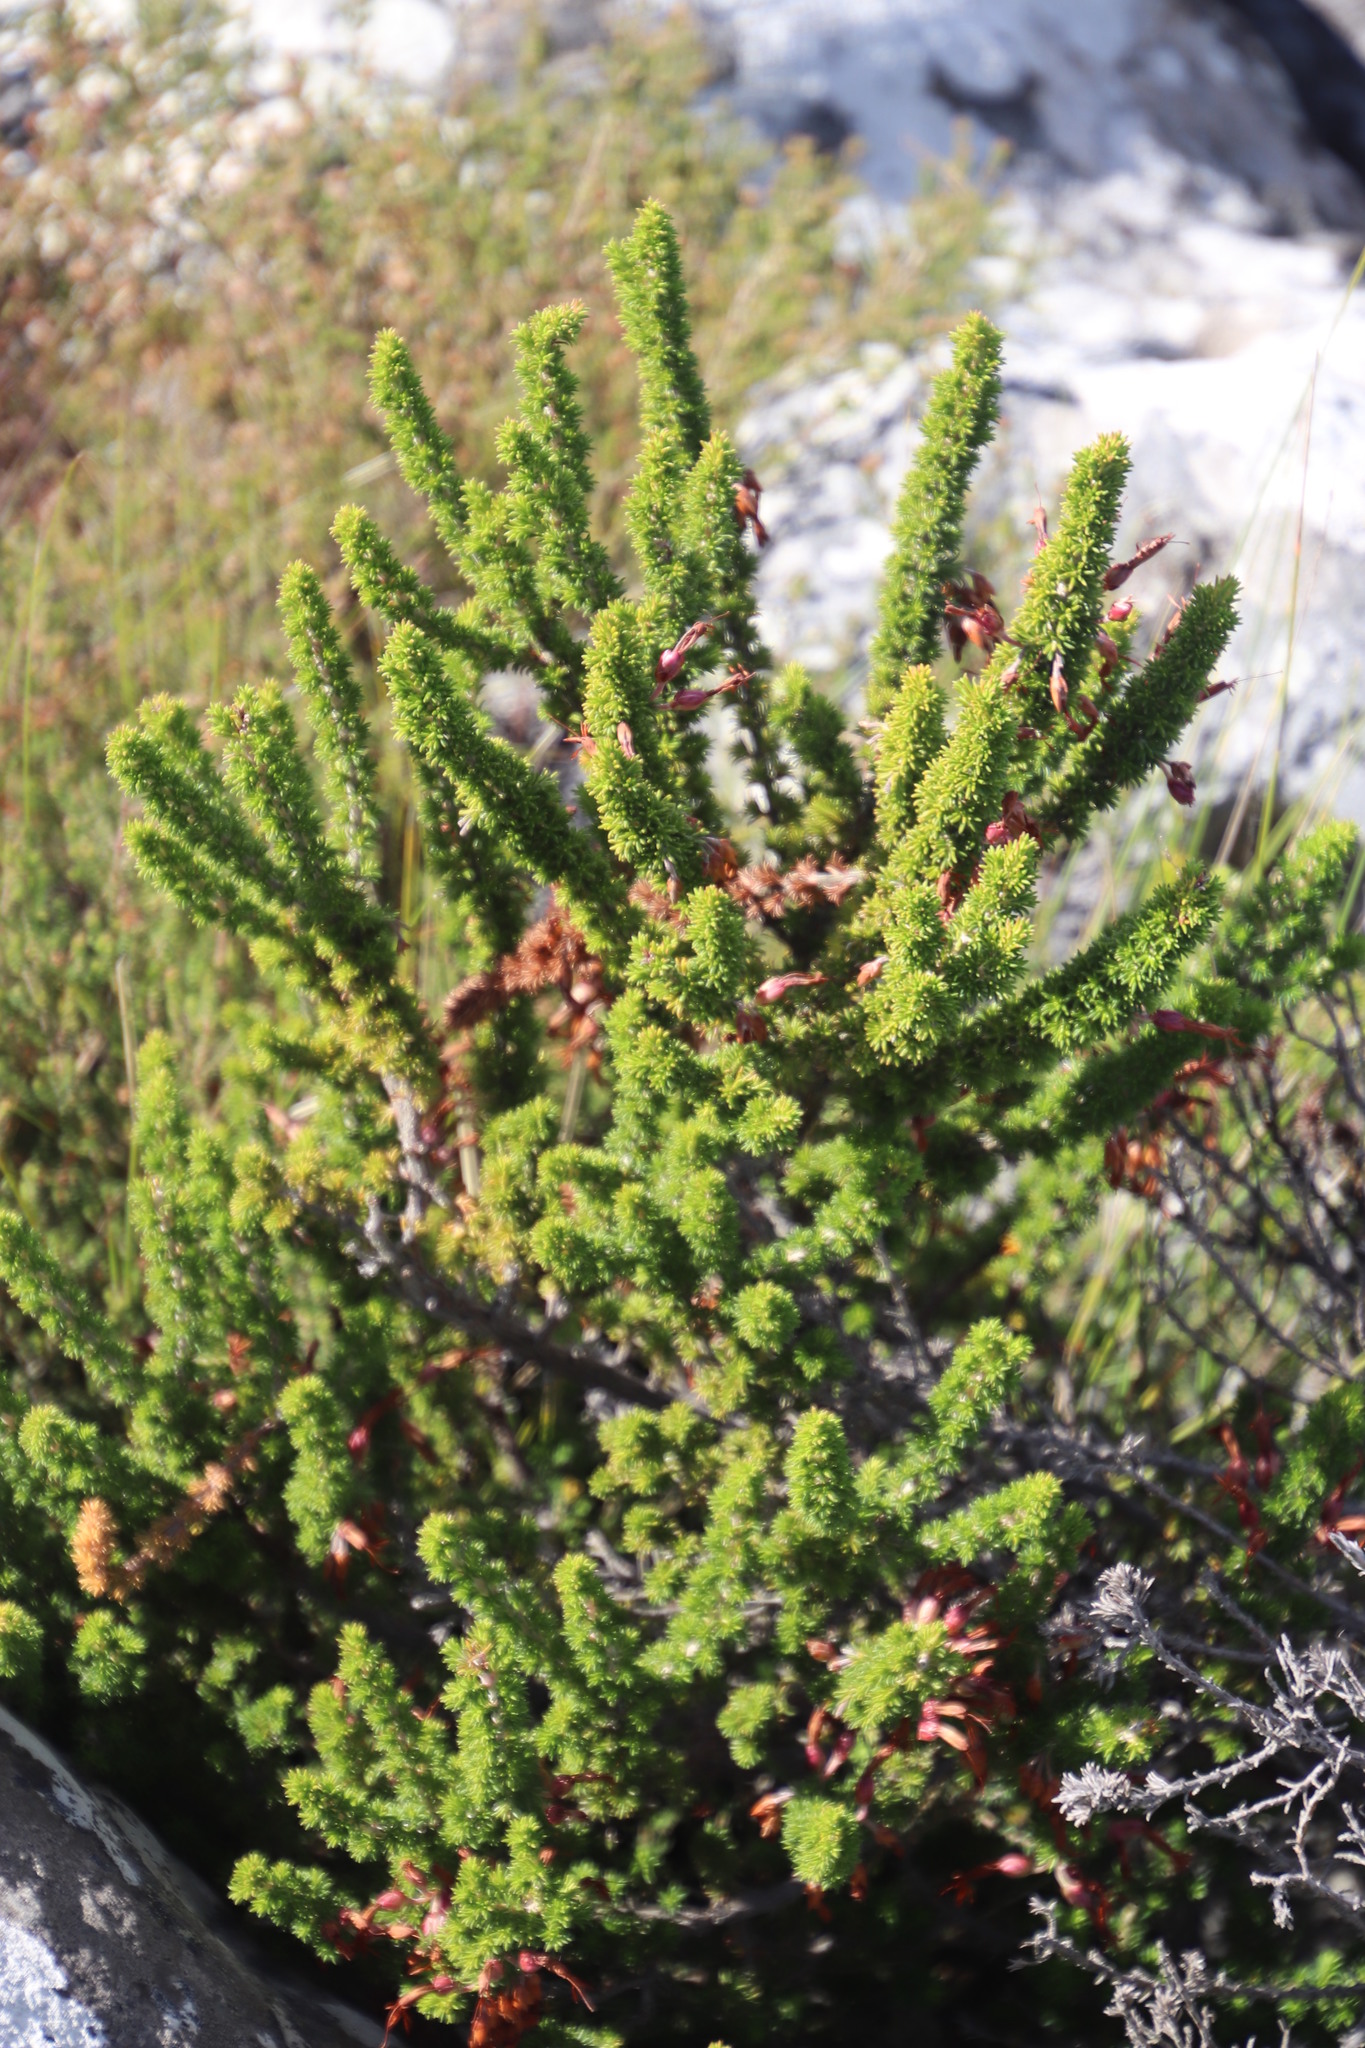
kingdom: Plantae
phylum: Tracheophyta
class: Magnoliopsida
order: Ericales
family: Ericaceae
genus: Erica
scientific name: Erica coccinea
